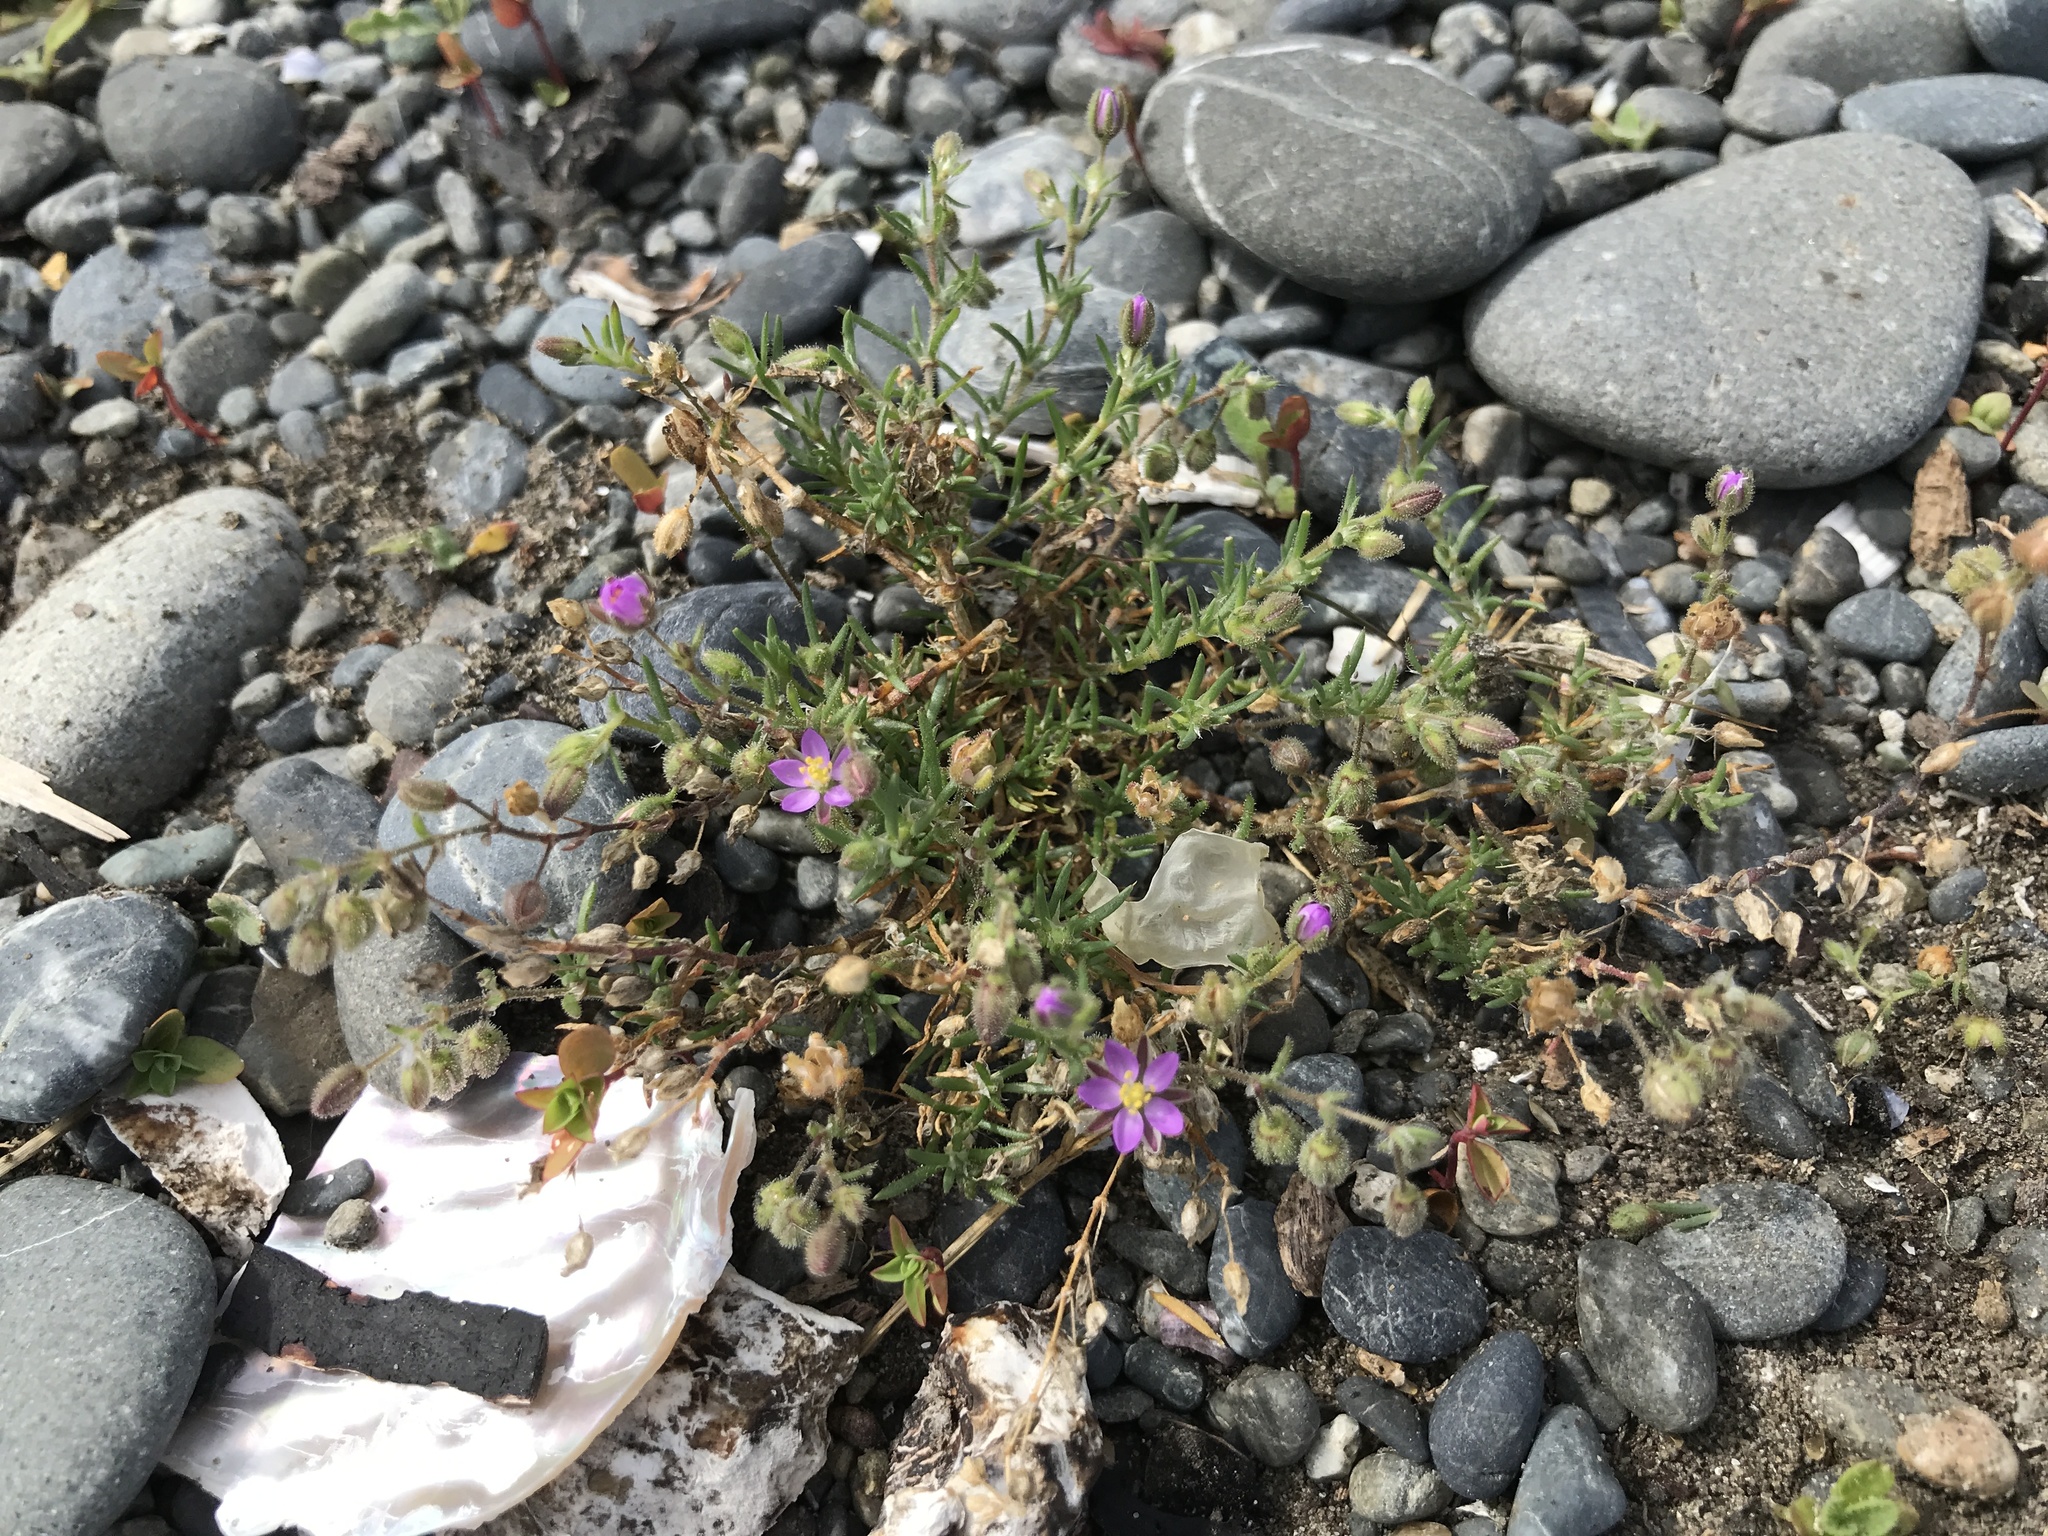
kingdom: Plantae
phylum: Tracheophyta
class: Magnoliopsida
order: Caryophyllales
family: Caryophyllaceae
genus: Spergularia
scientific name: Spergularia rubra
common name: Red sand-spurrey
